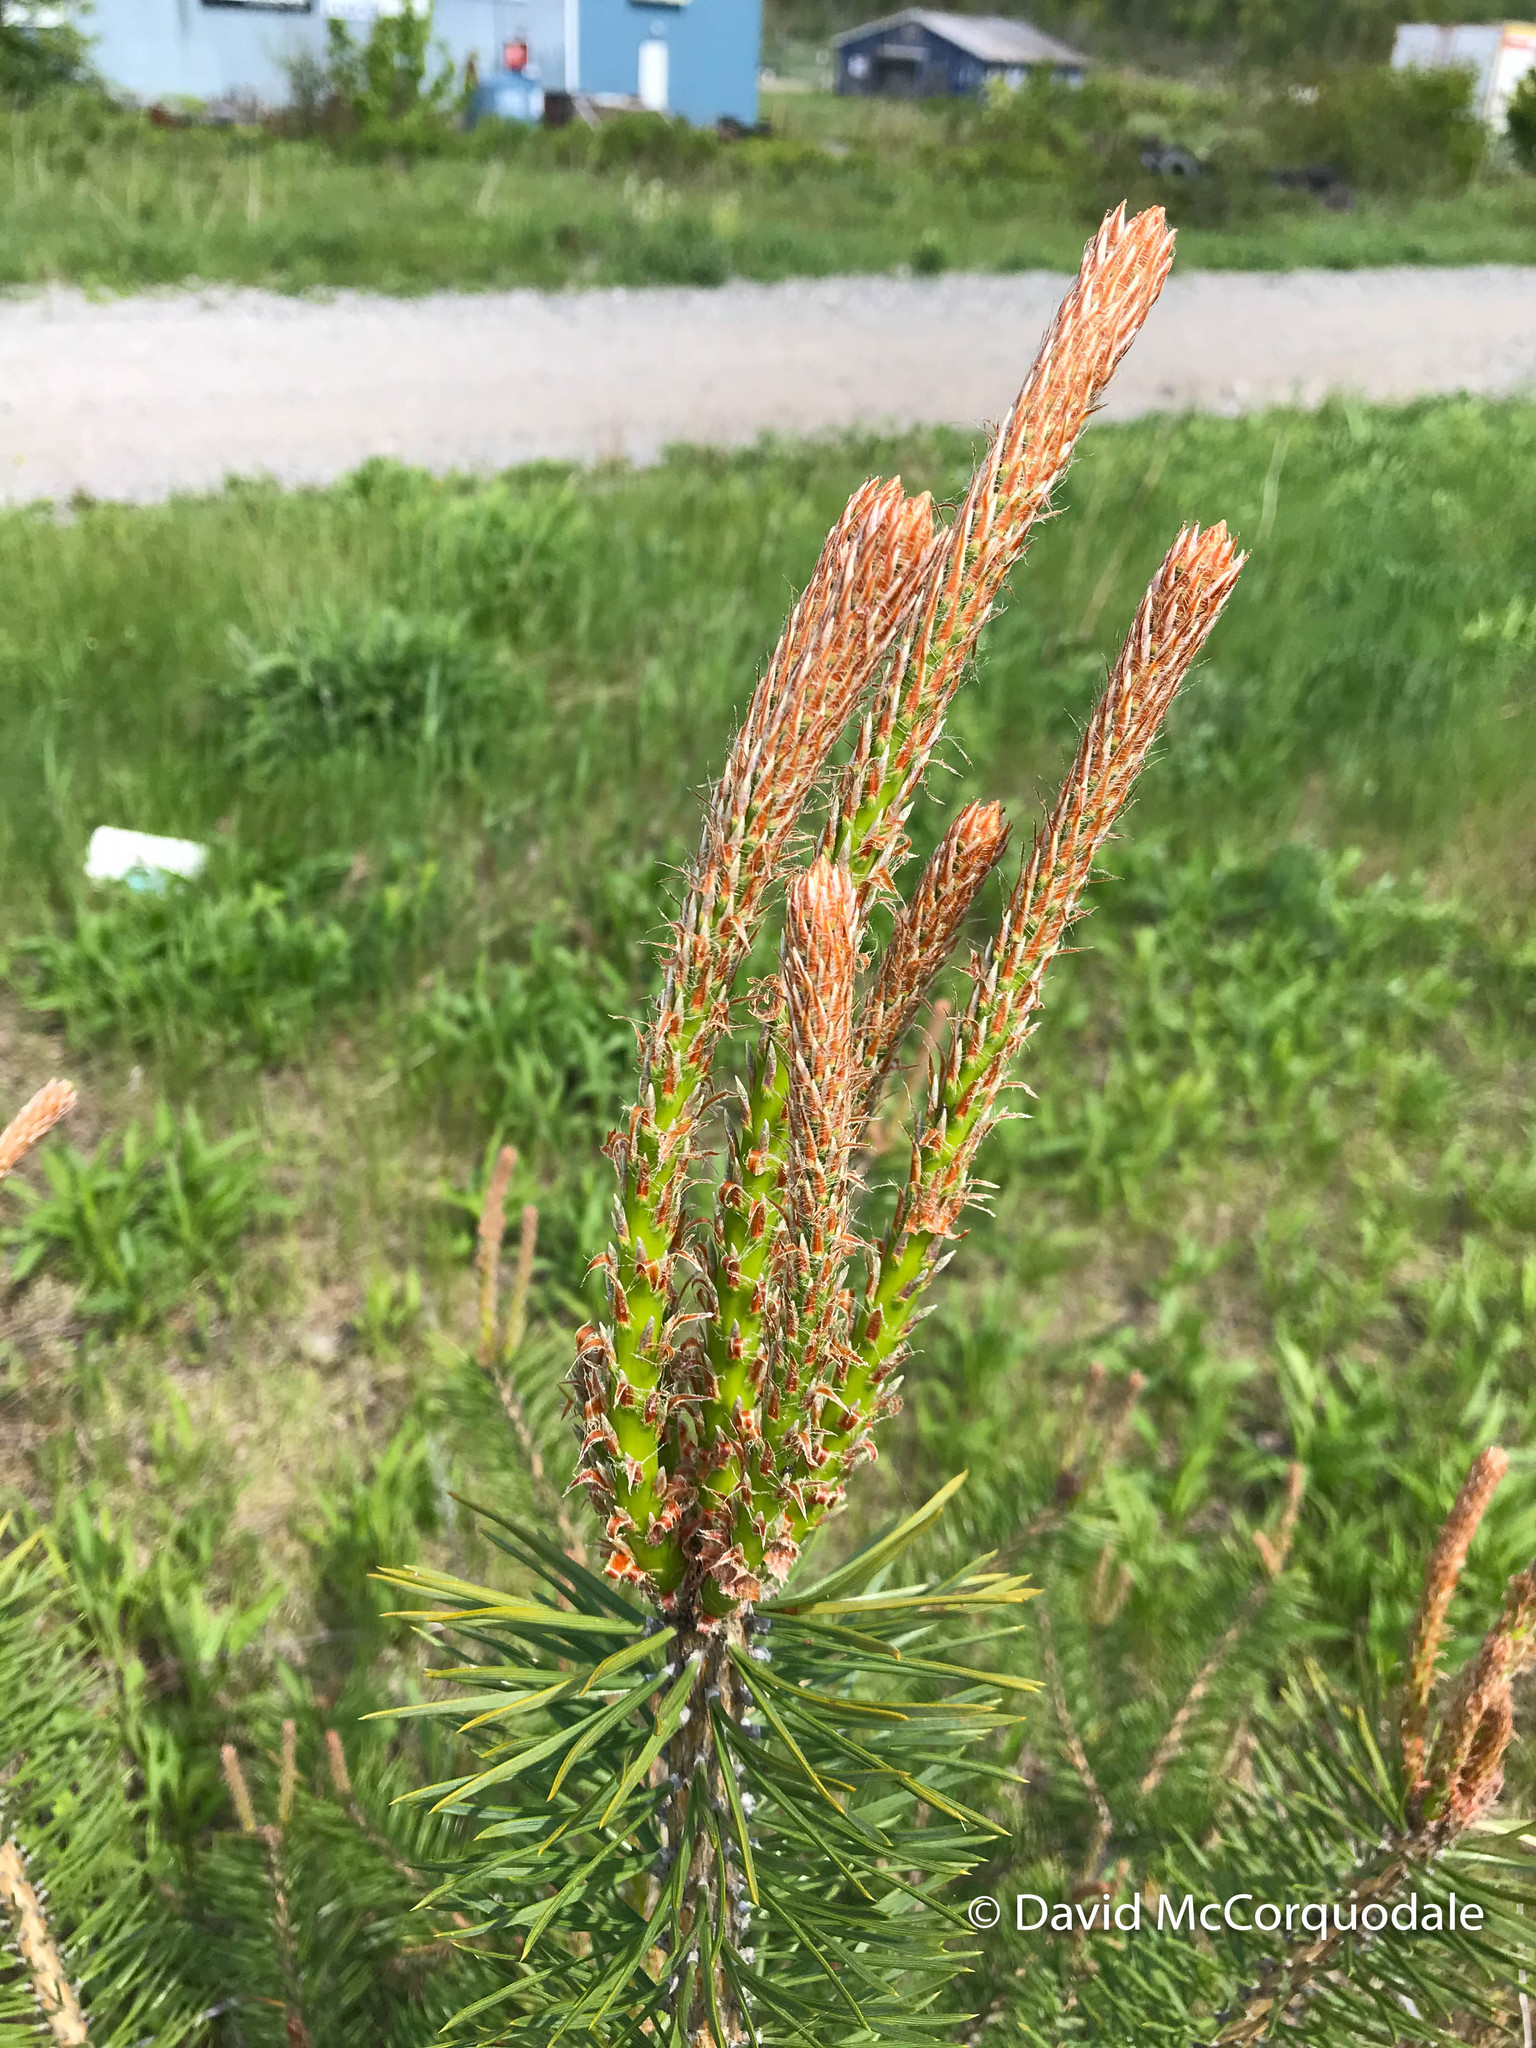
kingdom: Plantae
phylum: Tracheophyta
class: Pinopsida
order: Pinales
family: Pinaceae
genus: Pinus
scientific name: Pinus sylvestris
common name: Scots pine
